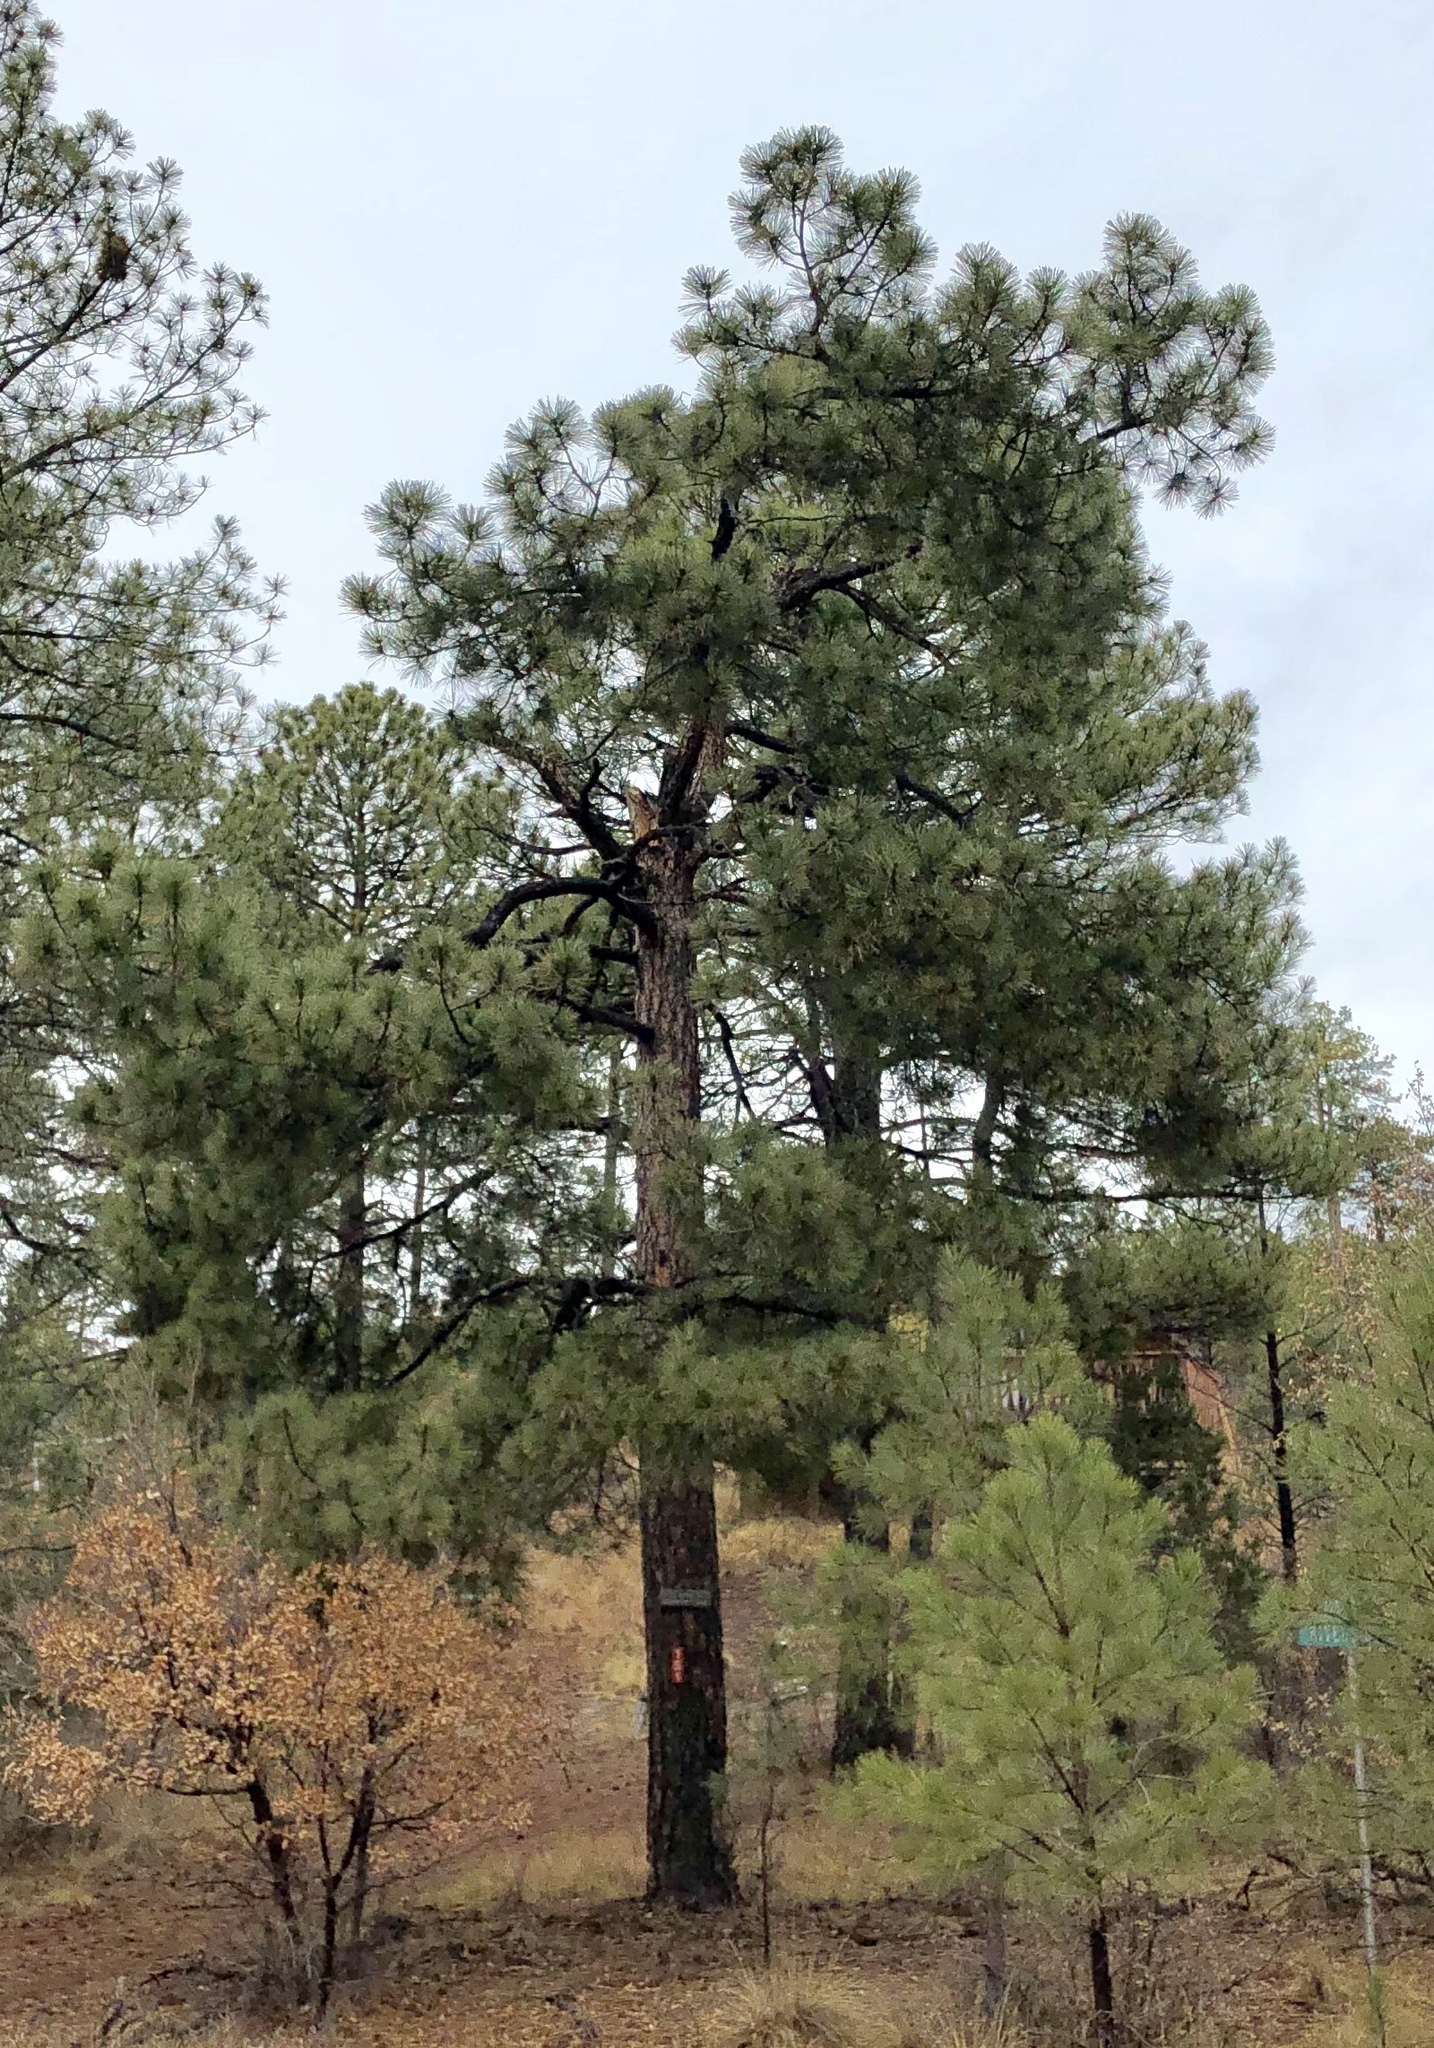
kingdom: Plantae
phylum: Tracheophyta
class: Pinopsida
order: Pinales
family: Pinaceae
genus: Pinus
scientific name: Pinus ponderosa
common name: Western yellow-pine
